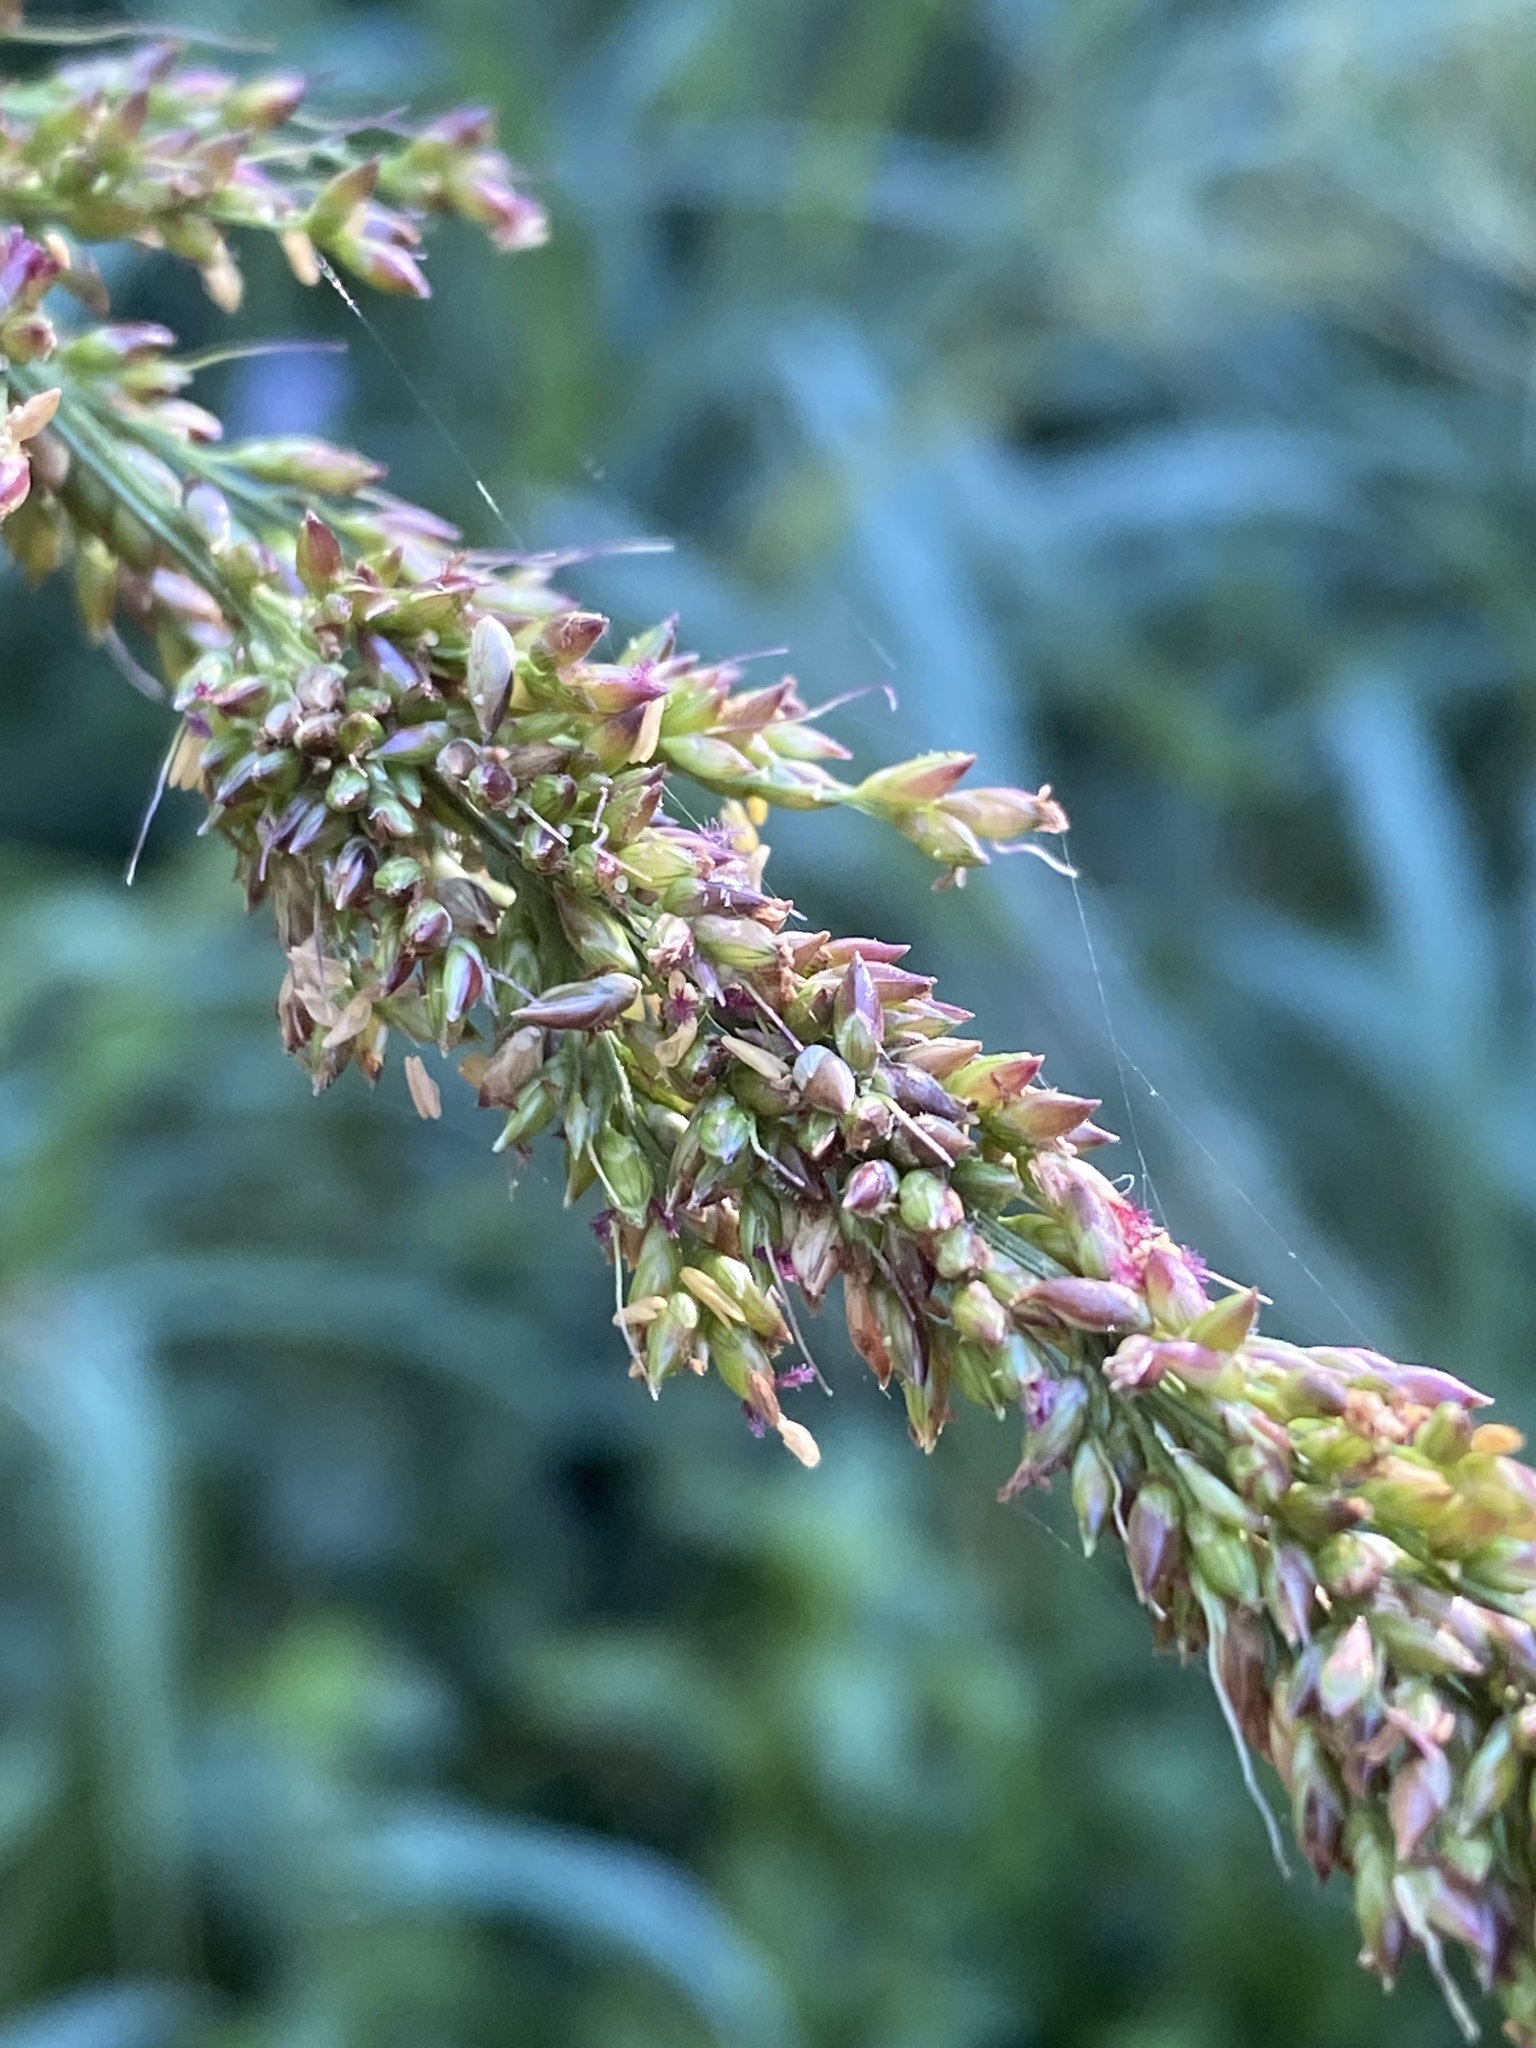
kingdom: Plantae
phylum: Tracheophyta
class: Liliopsida
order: Poales
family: Poaceae
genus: Setaria
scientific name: Setaria palmifolia
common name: Broadleaved bristlegrass
